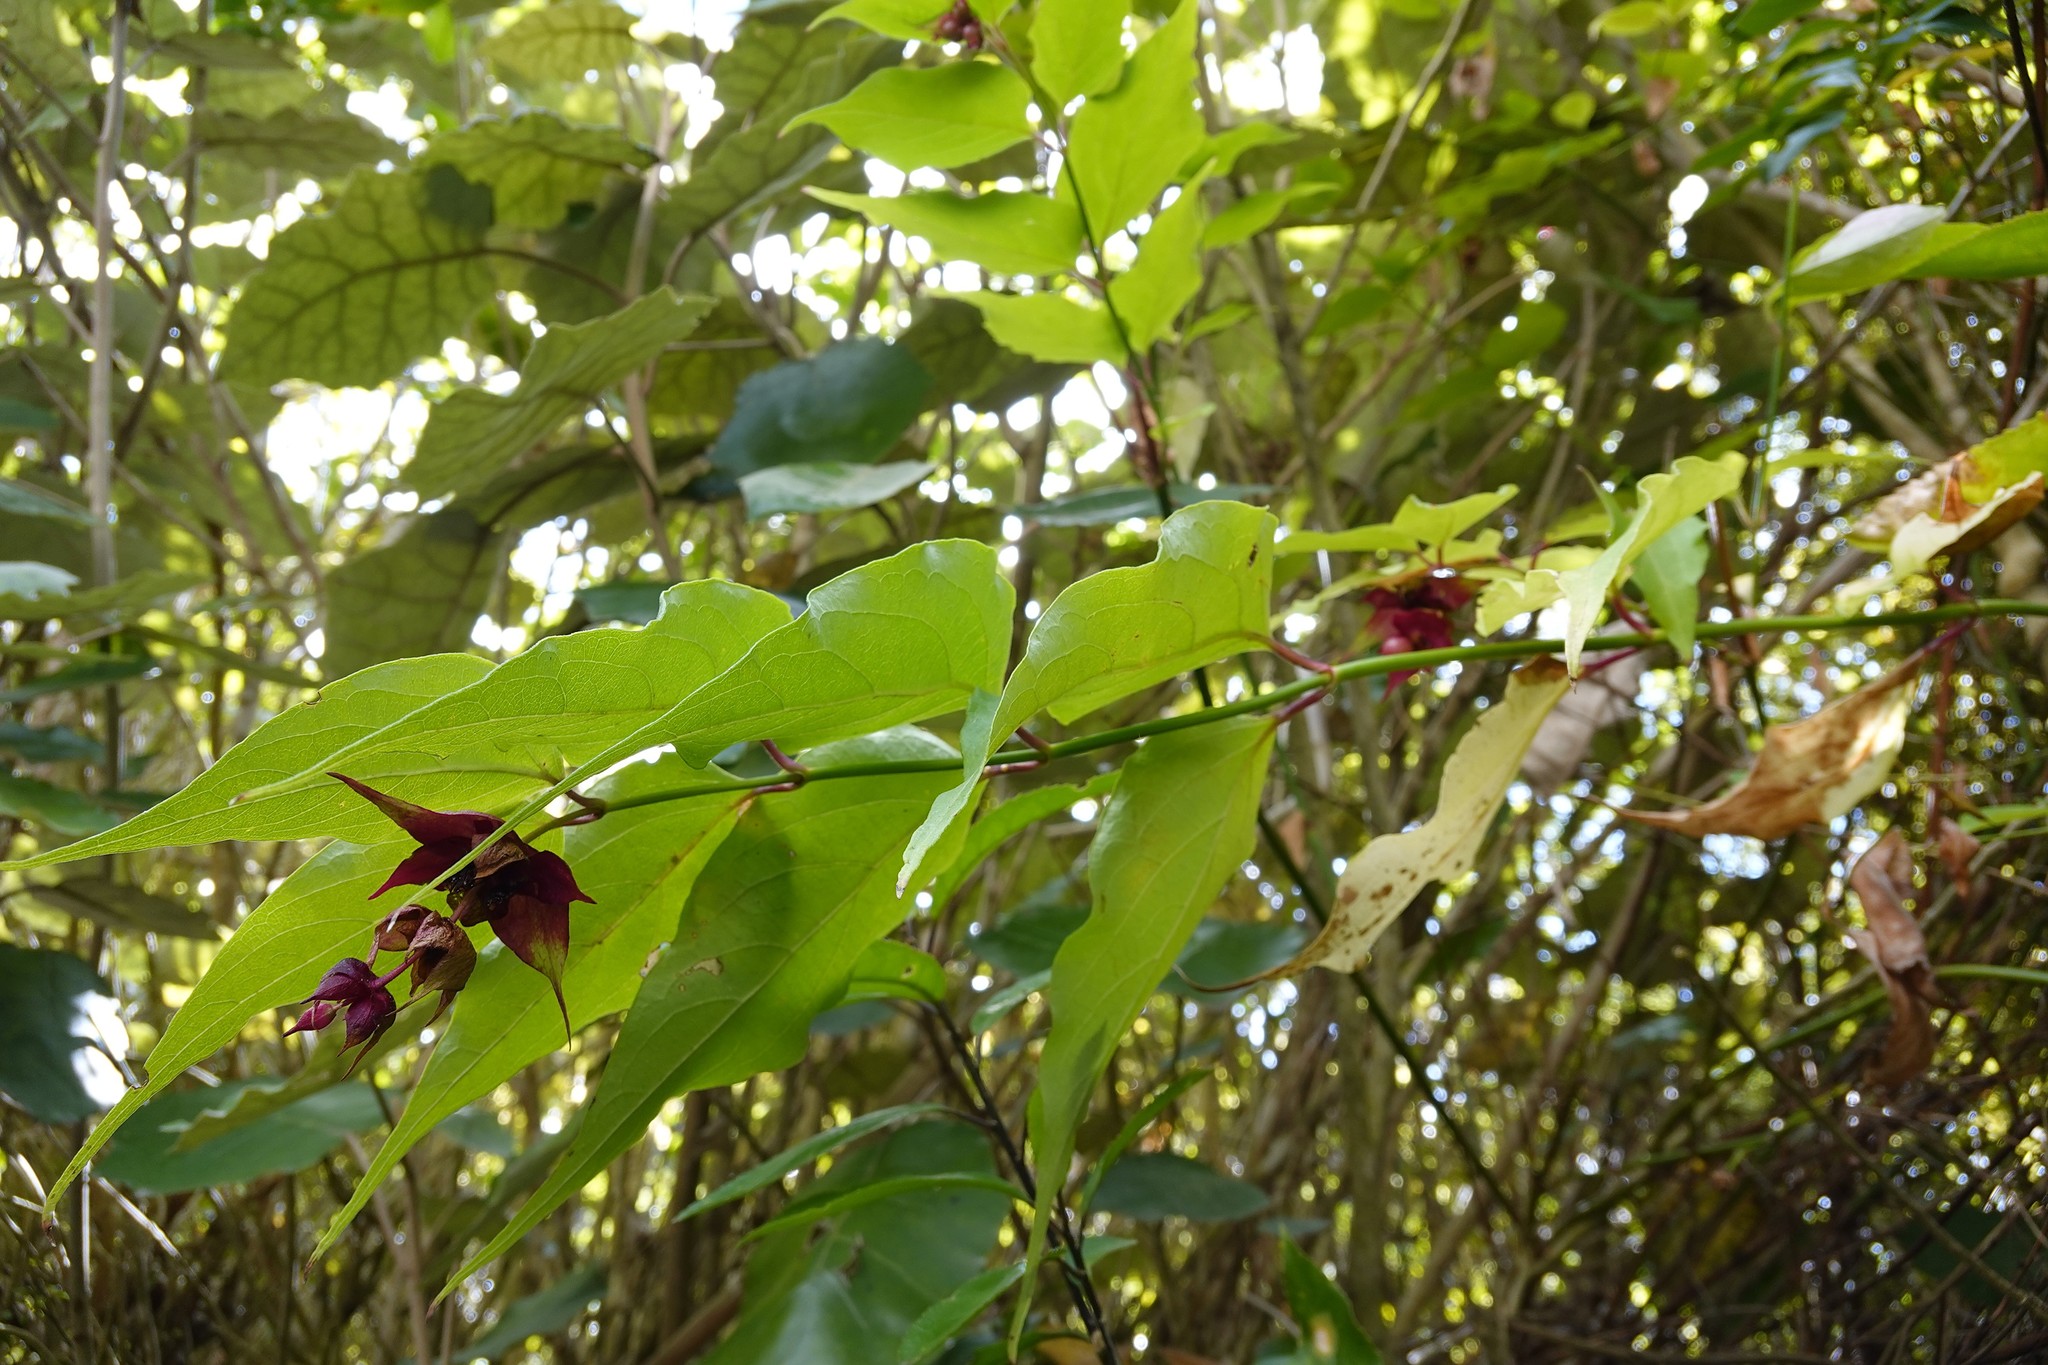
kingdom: Plantae
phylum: Tracheophyta
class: Magnoliopsida
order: Dipsacales
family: Caprifoliaceae
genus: Leycesteria
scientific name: Leycesteria formosa
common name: Himalayan honeysuckle
